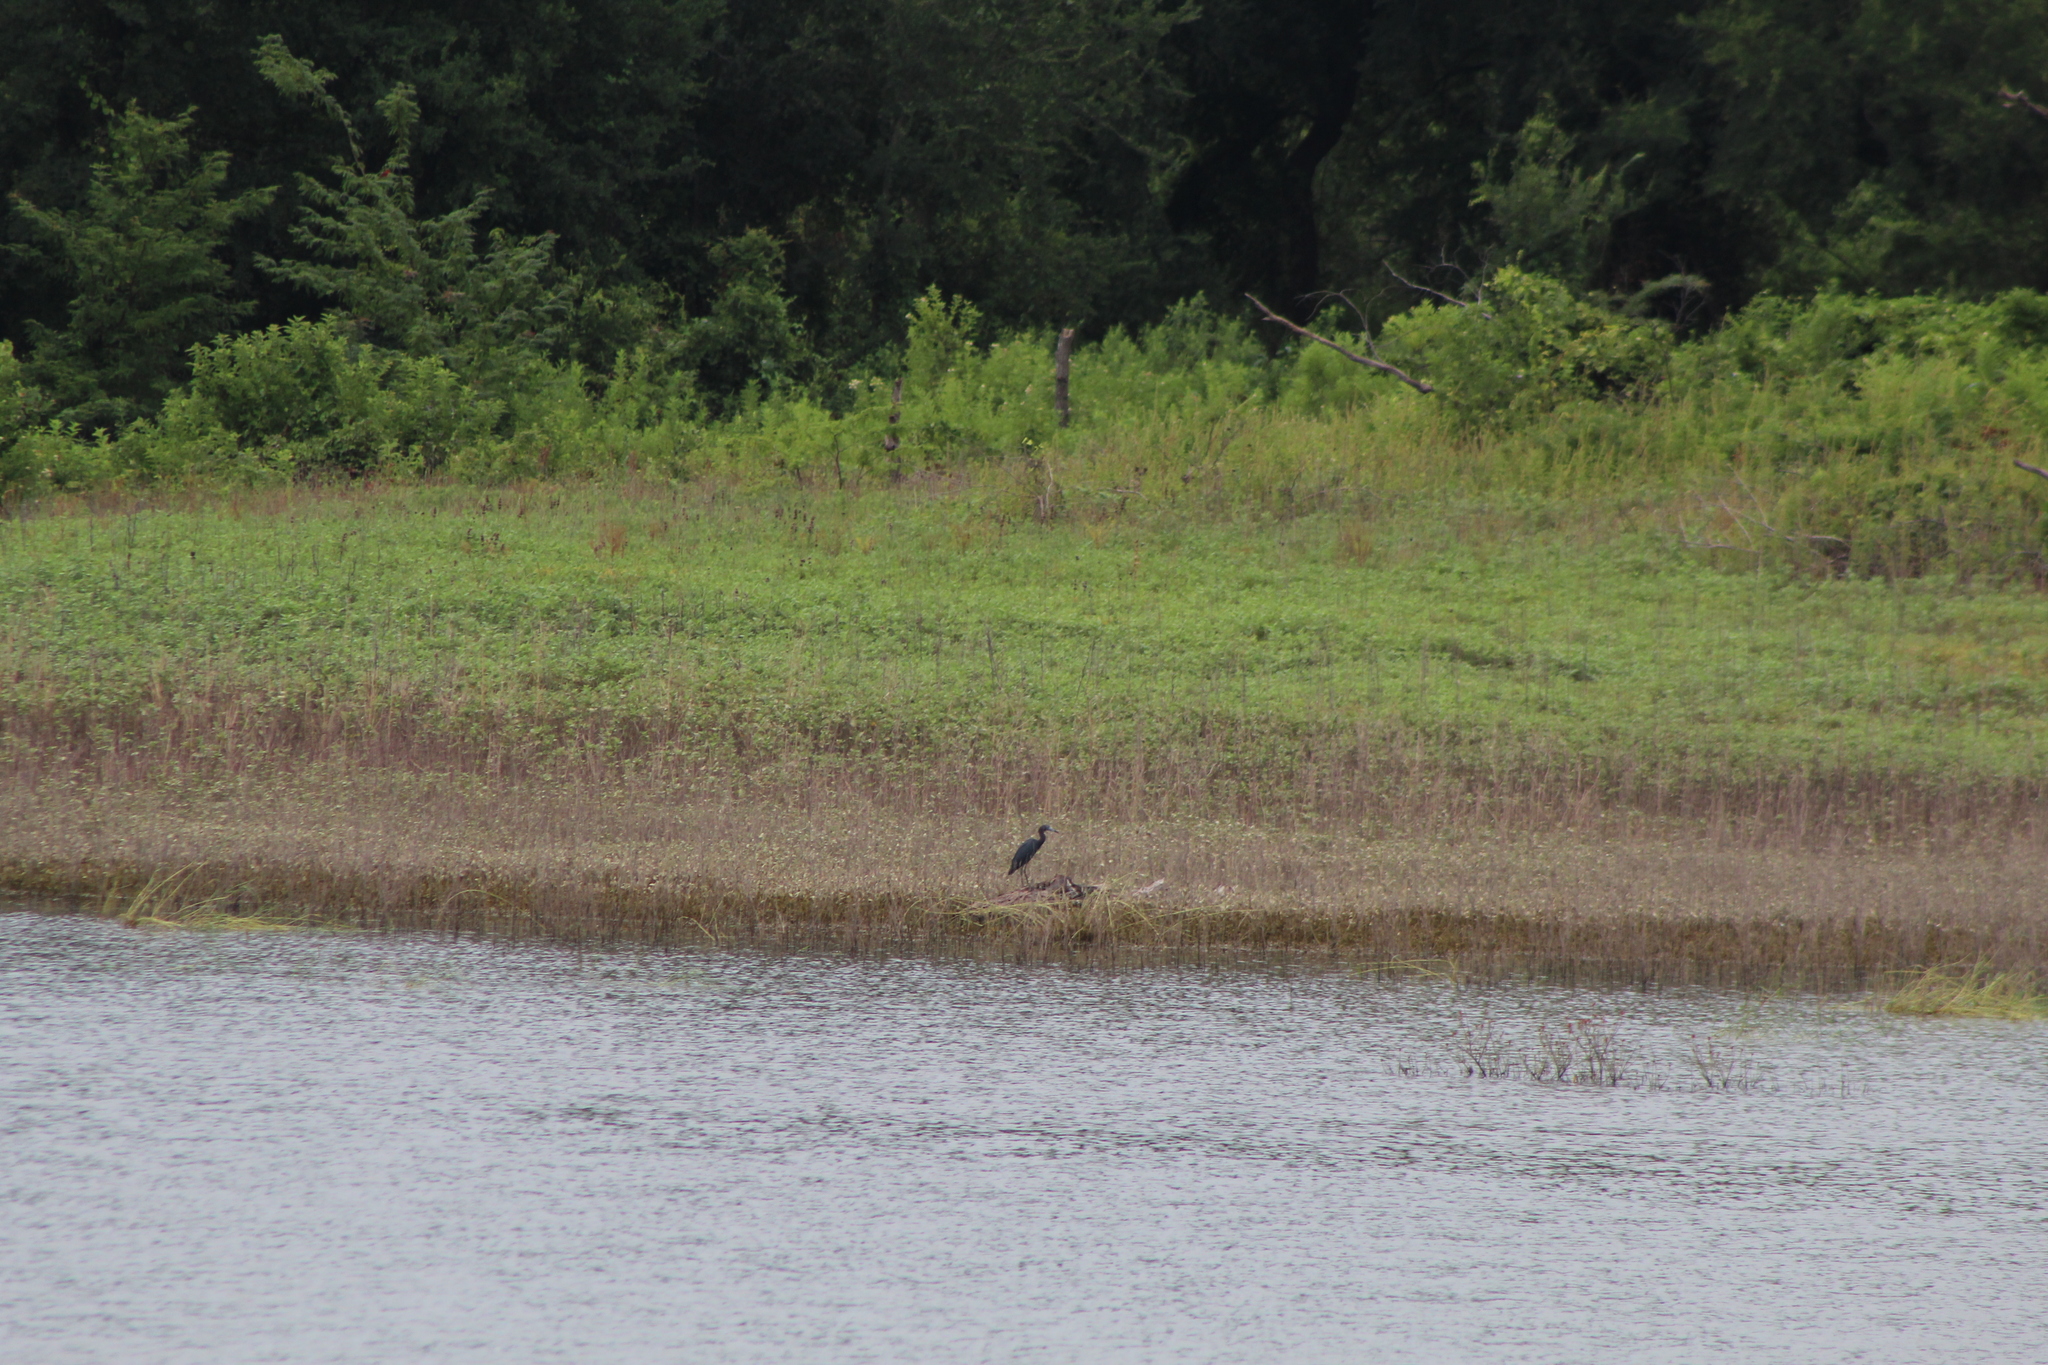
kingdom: Animalia
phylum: Chordata
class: Aves
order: Pelecaniformes
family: Ardeidae
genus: Egretta
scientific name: Egretta caerulea
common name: Little blue heron
